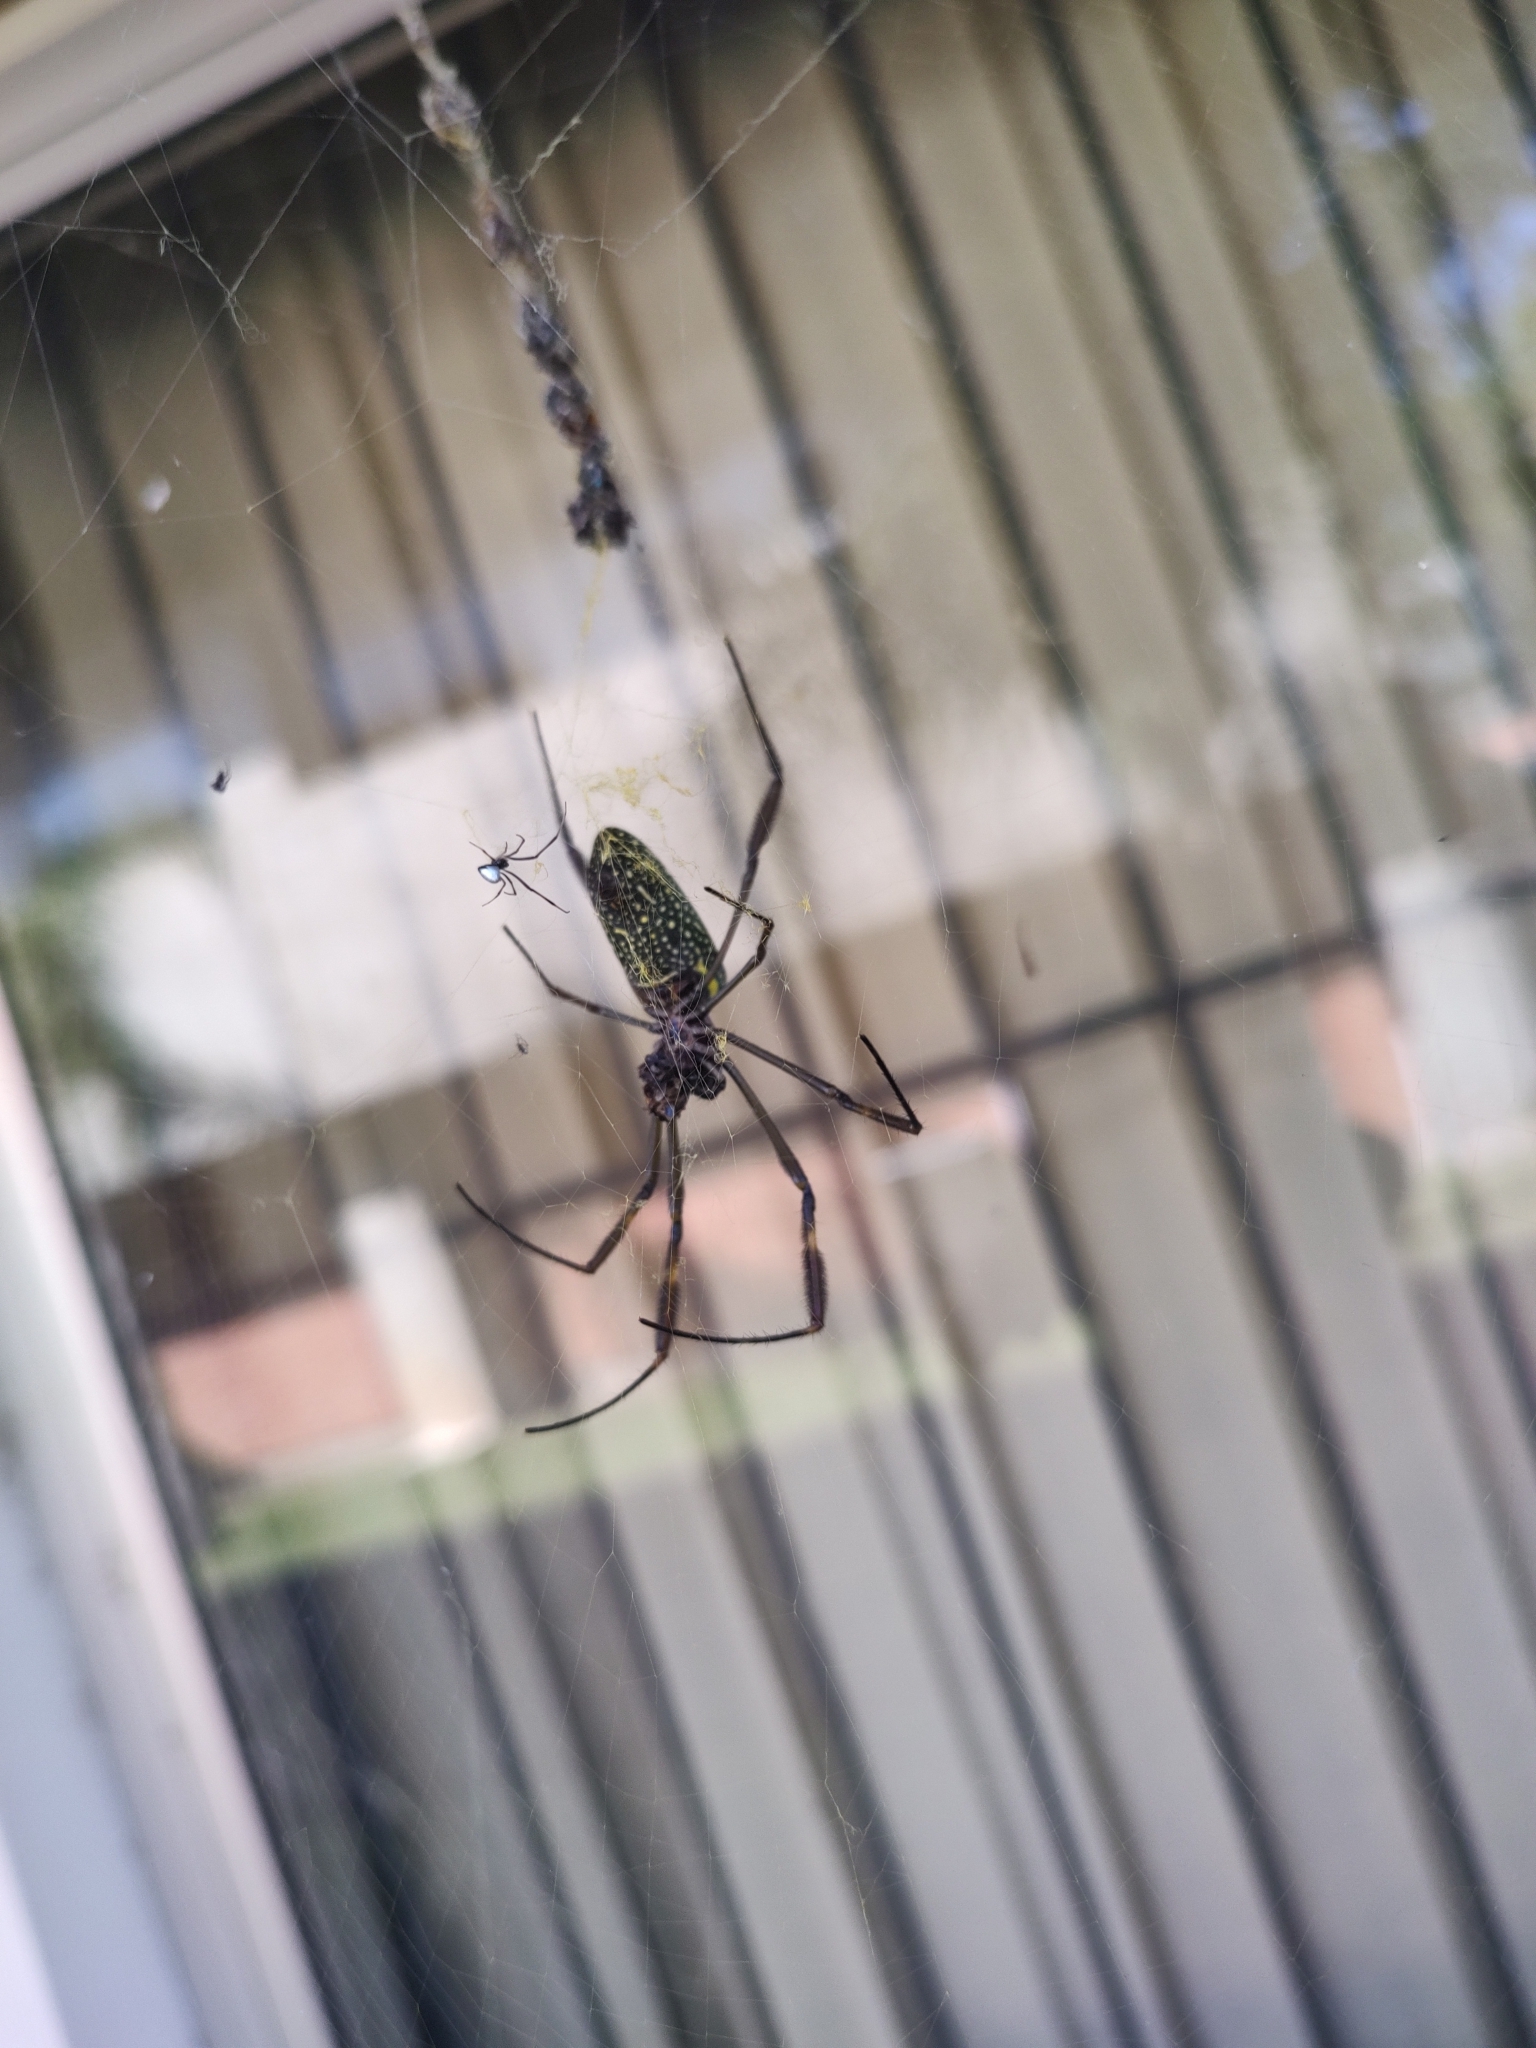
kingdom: Animalia
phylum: Arthropoda
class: Arachnida
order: Araneae
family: Araneidae
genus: Trichonephila
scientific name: Trichonephila clavipes
